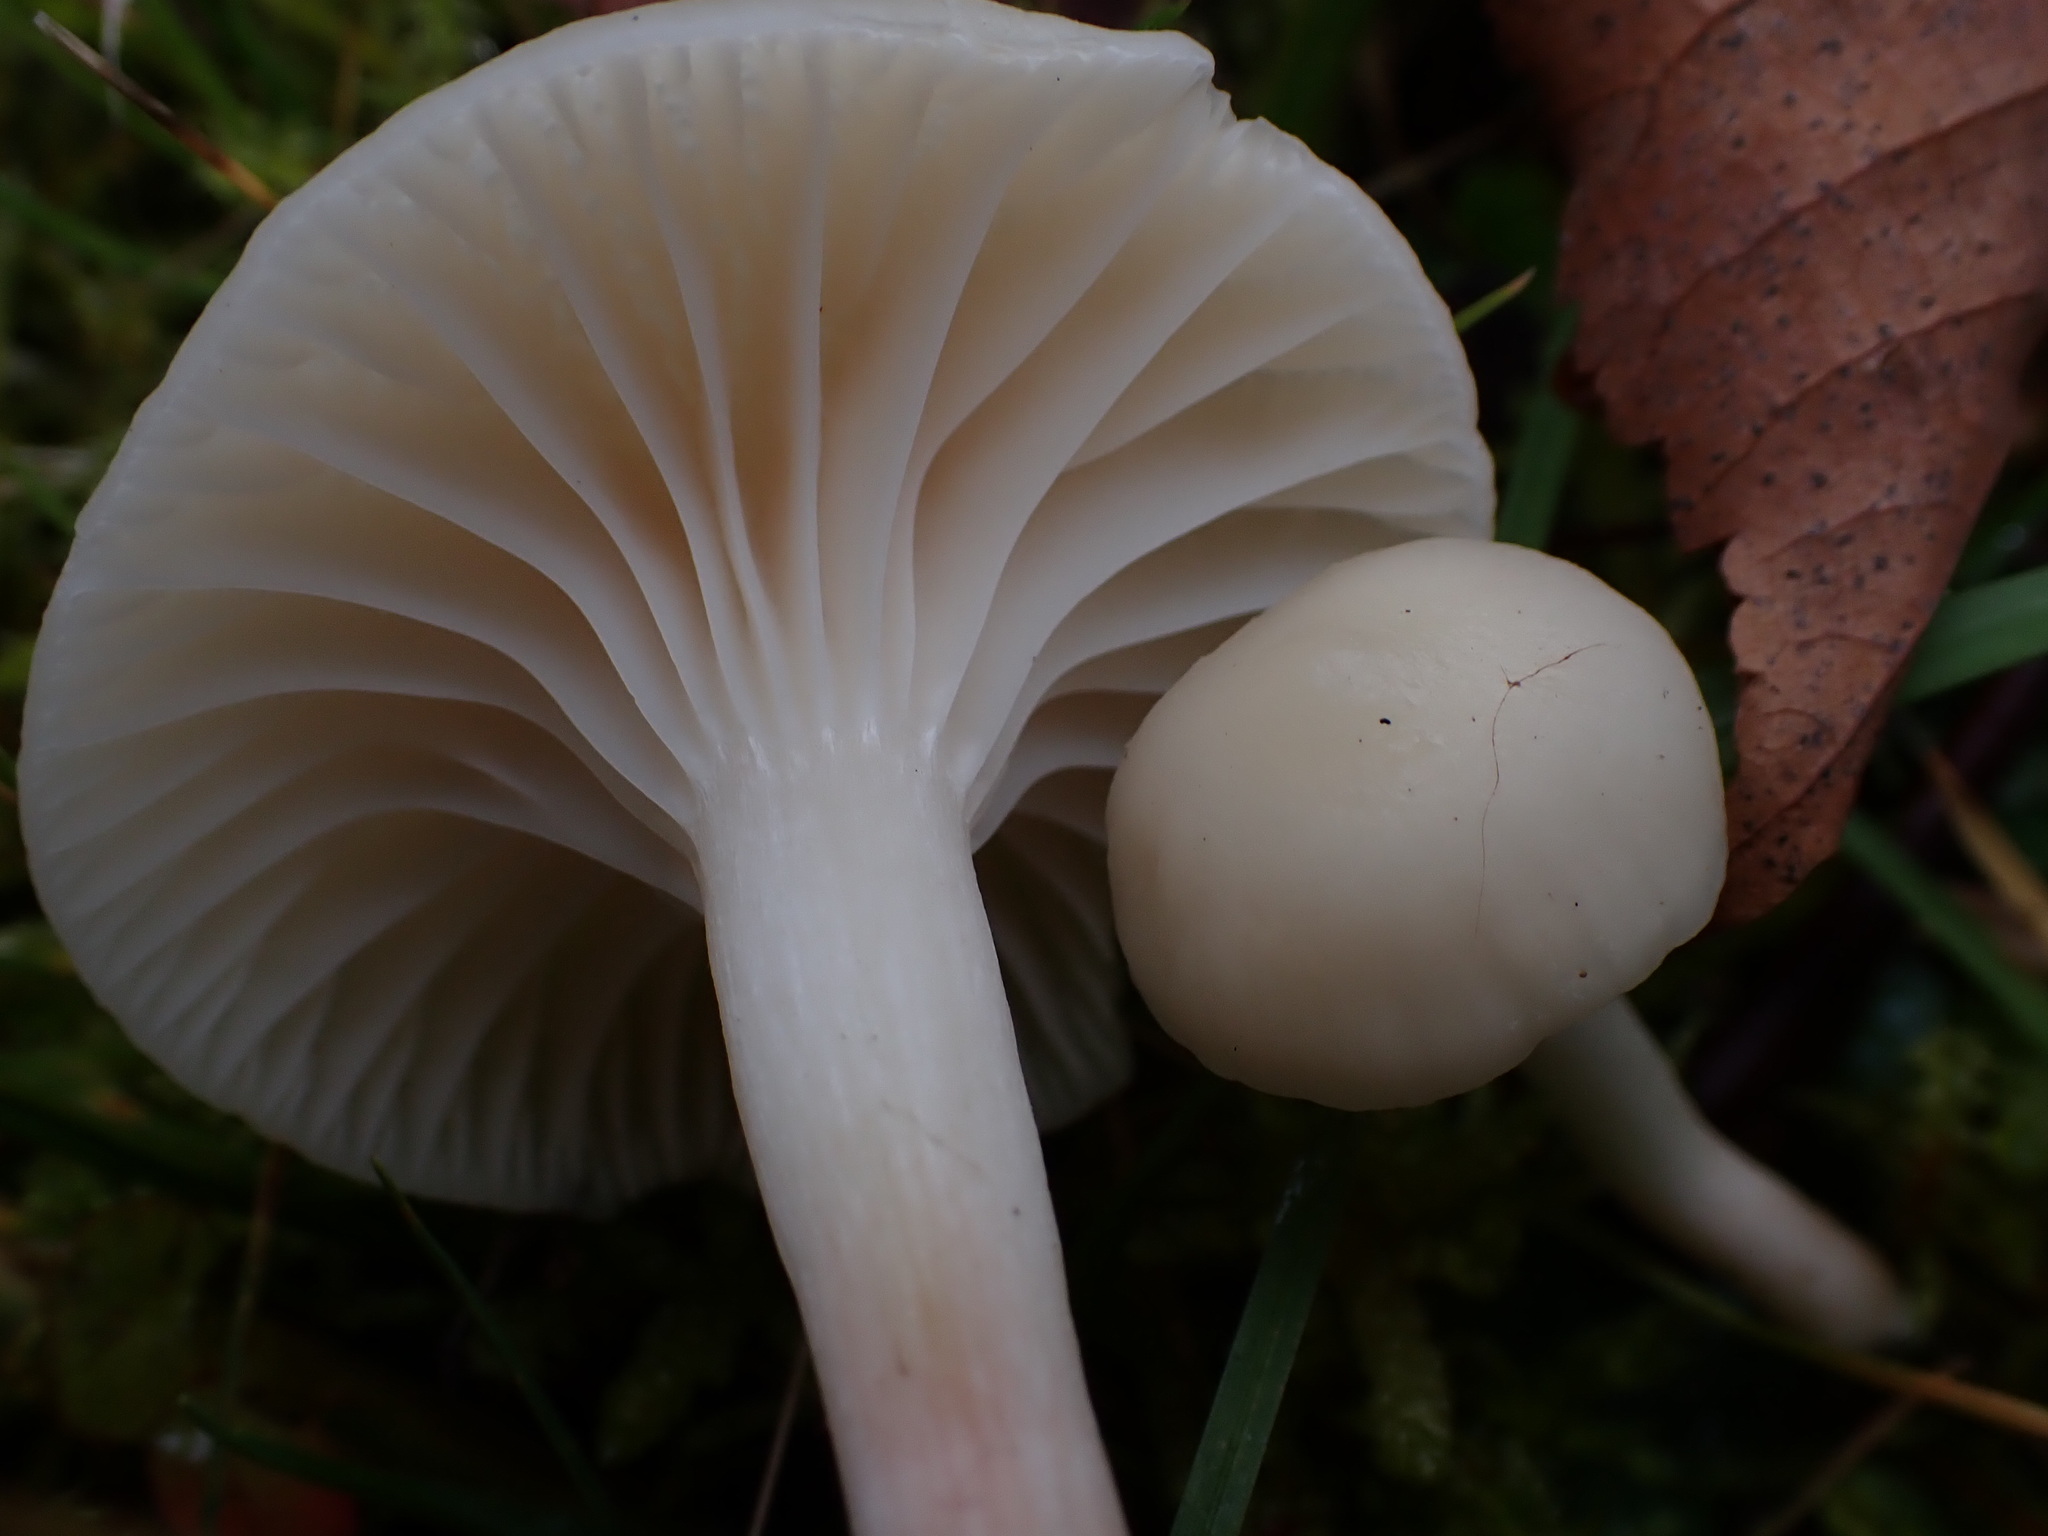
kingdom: Fungi
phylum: Basidiomycota
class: Agaricomycetes
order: Agaricales
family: Hygrophoraceae
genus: Cuphophyllus
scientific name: Cuphophyllus virgineus
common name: Snowy waxcap
